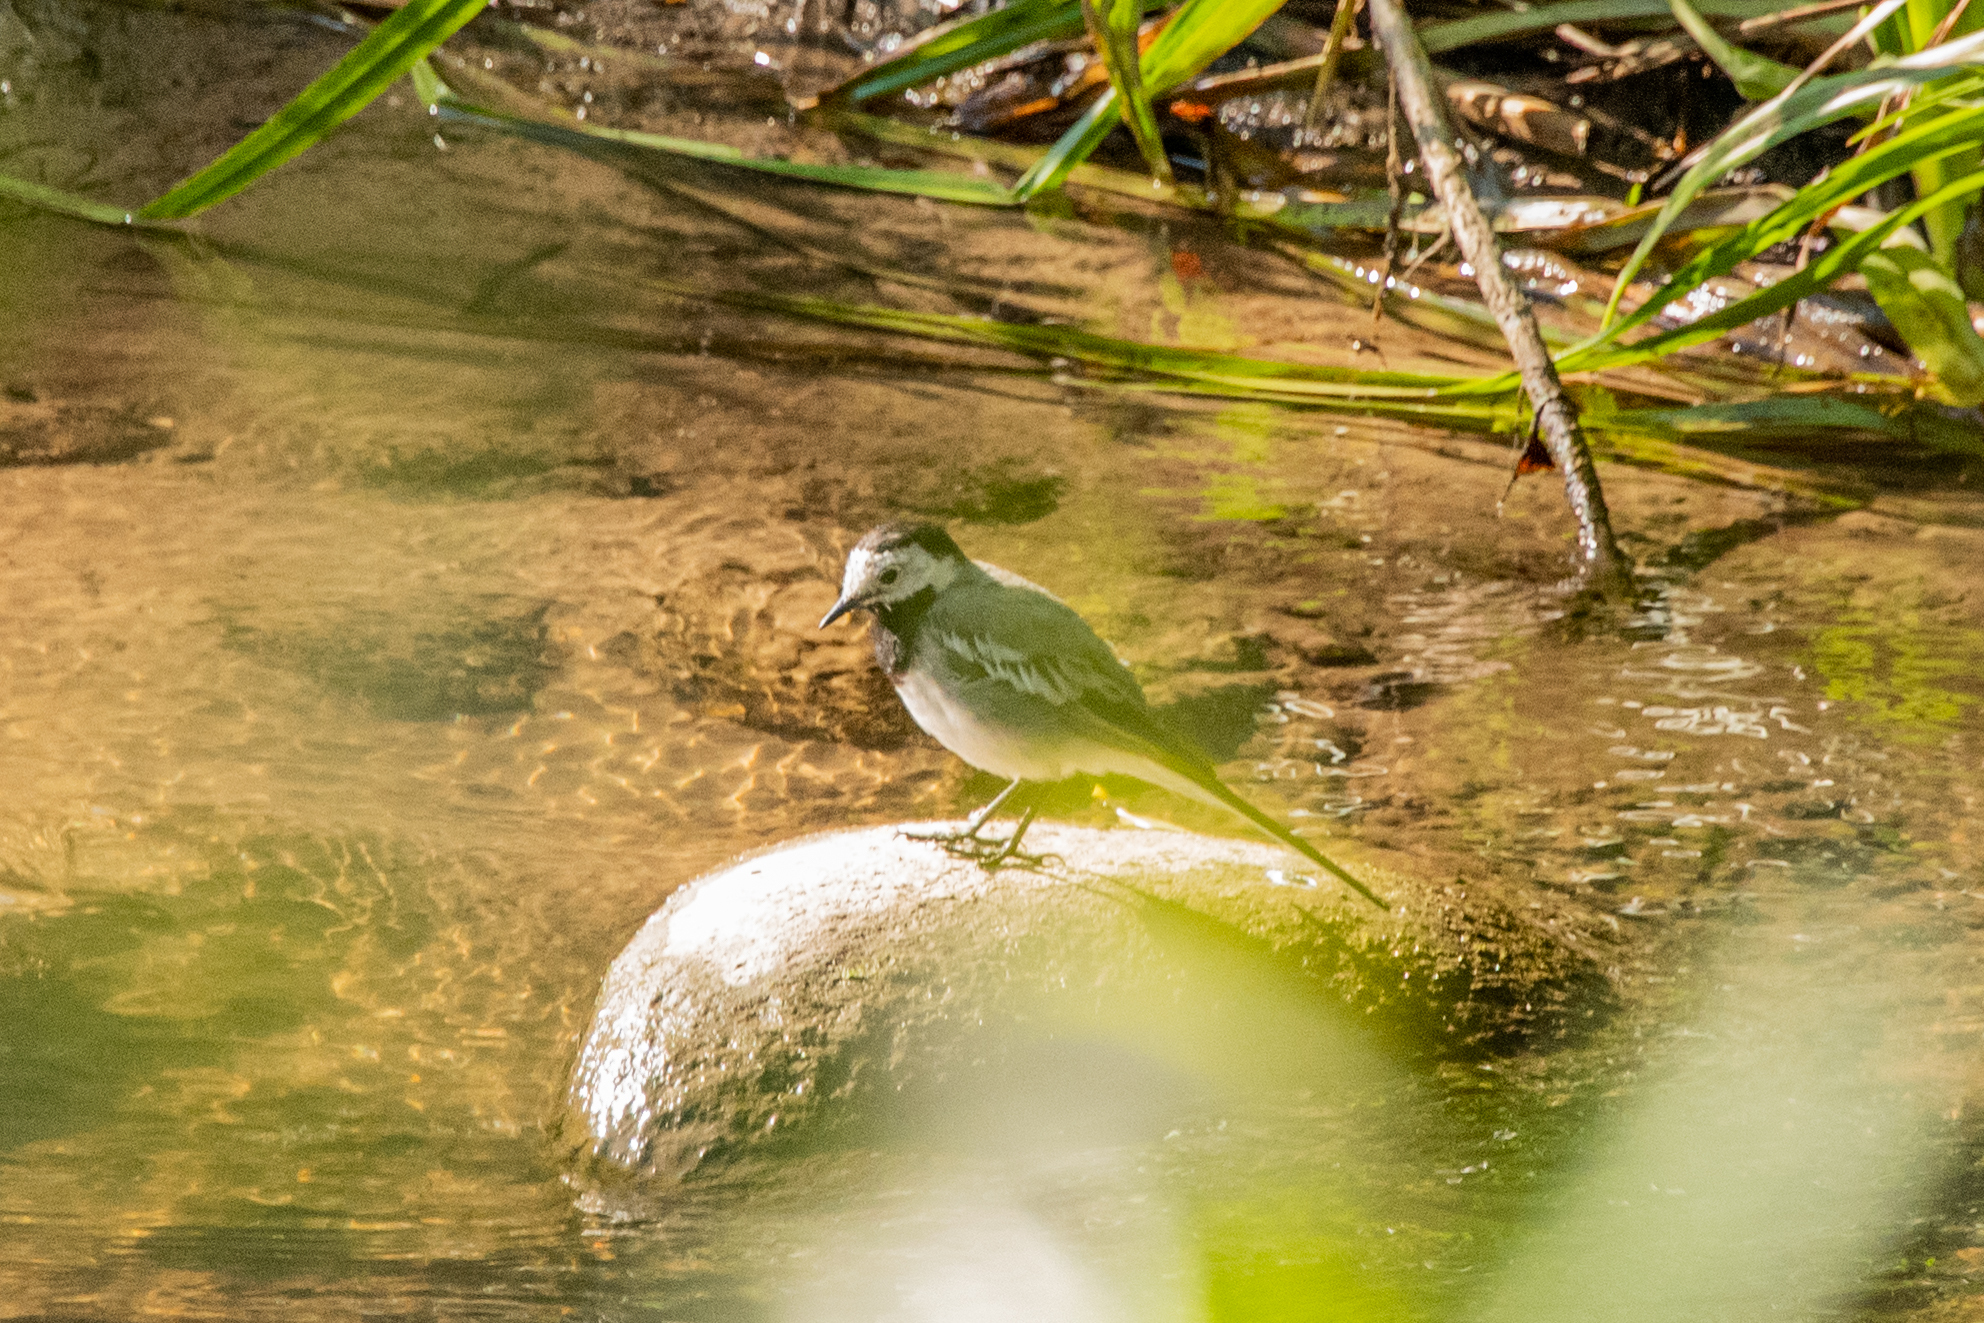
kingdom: Animalia
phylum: Chordata
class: Aves
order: Passeriformes
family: Motacillidae
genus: Motacilla
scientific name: Motacilla alba
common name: White wagtail
